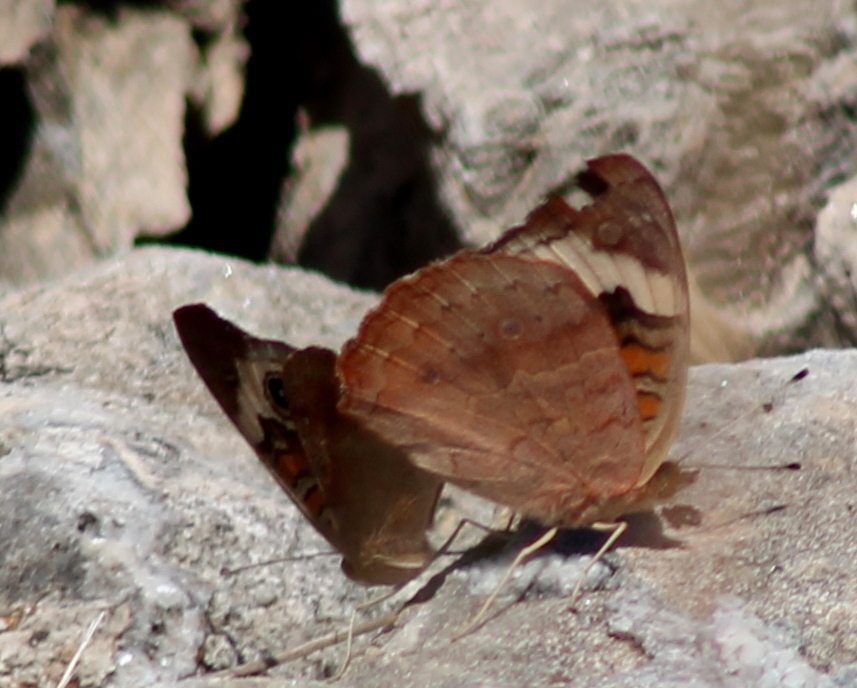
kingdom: Animalia
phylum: Arthropoda
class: Insecta
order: Lepidoptera
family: Nymphalidae
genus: Junonia
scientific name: Junonia coenia
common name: Common buckeye
